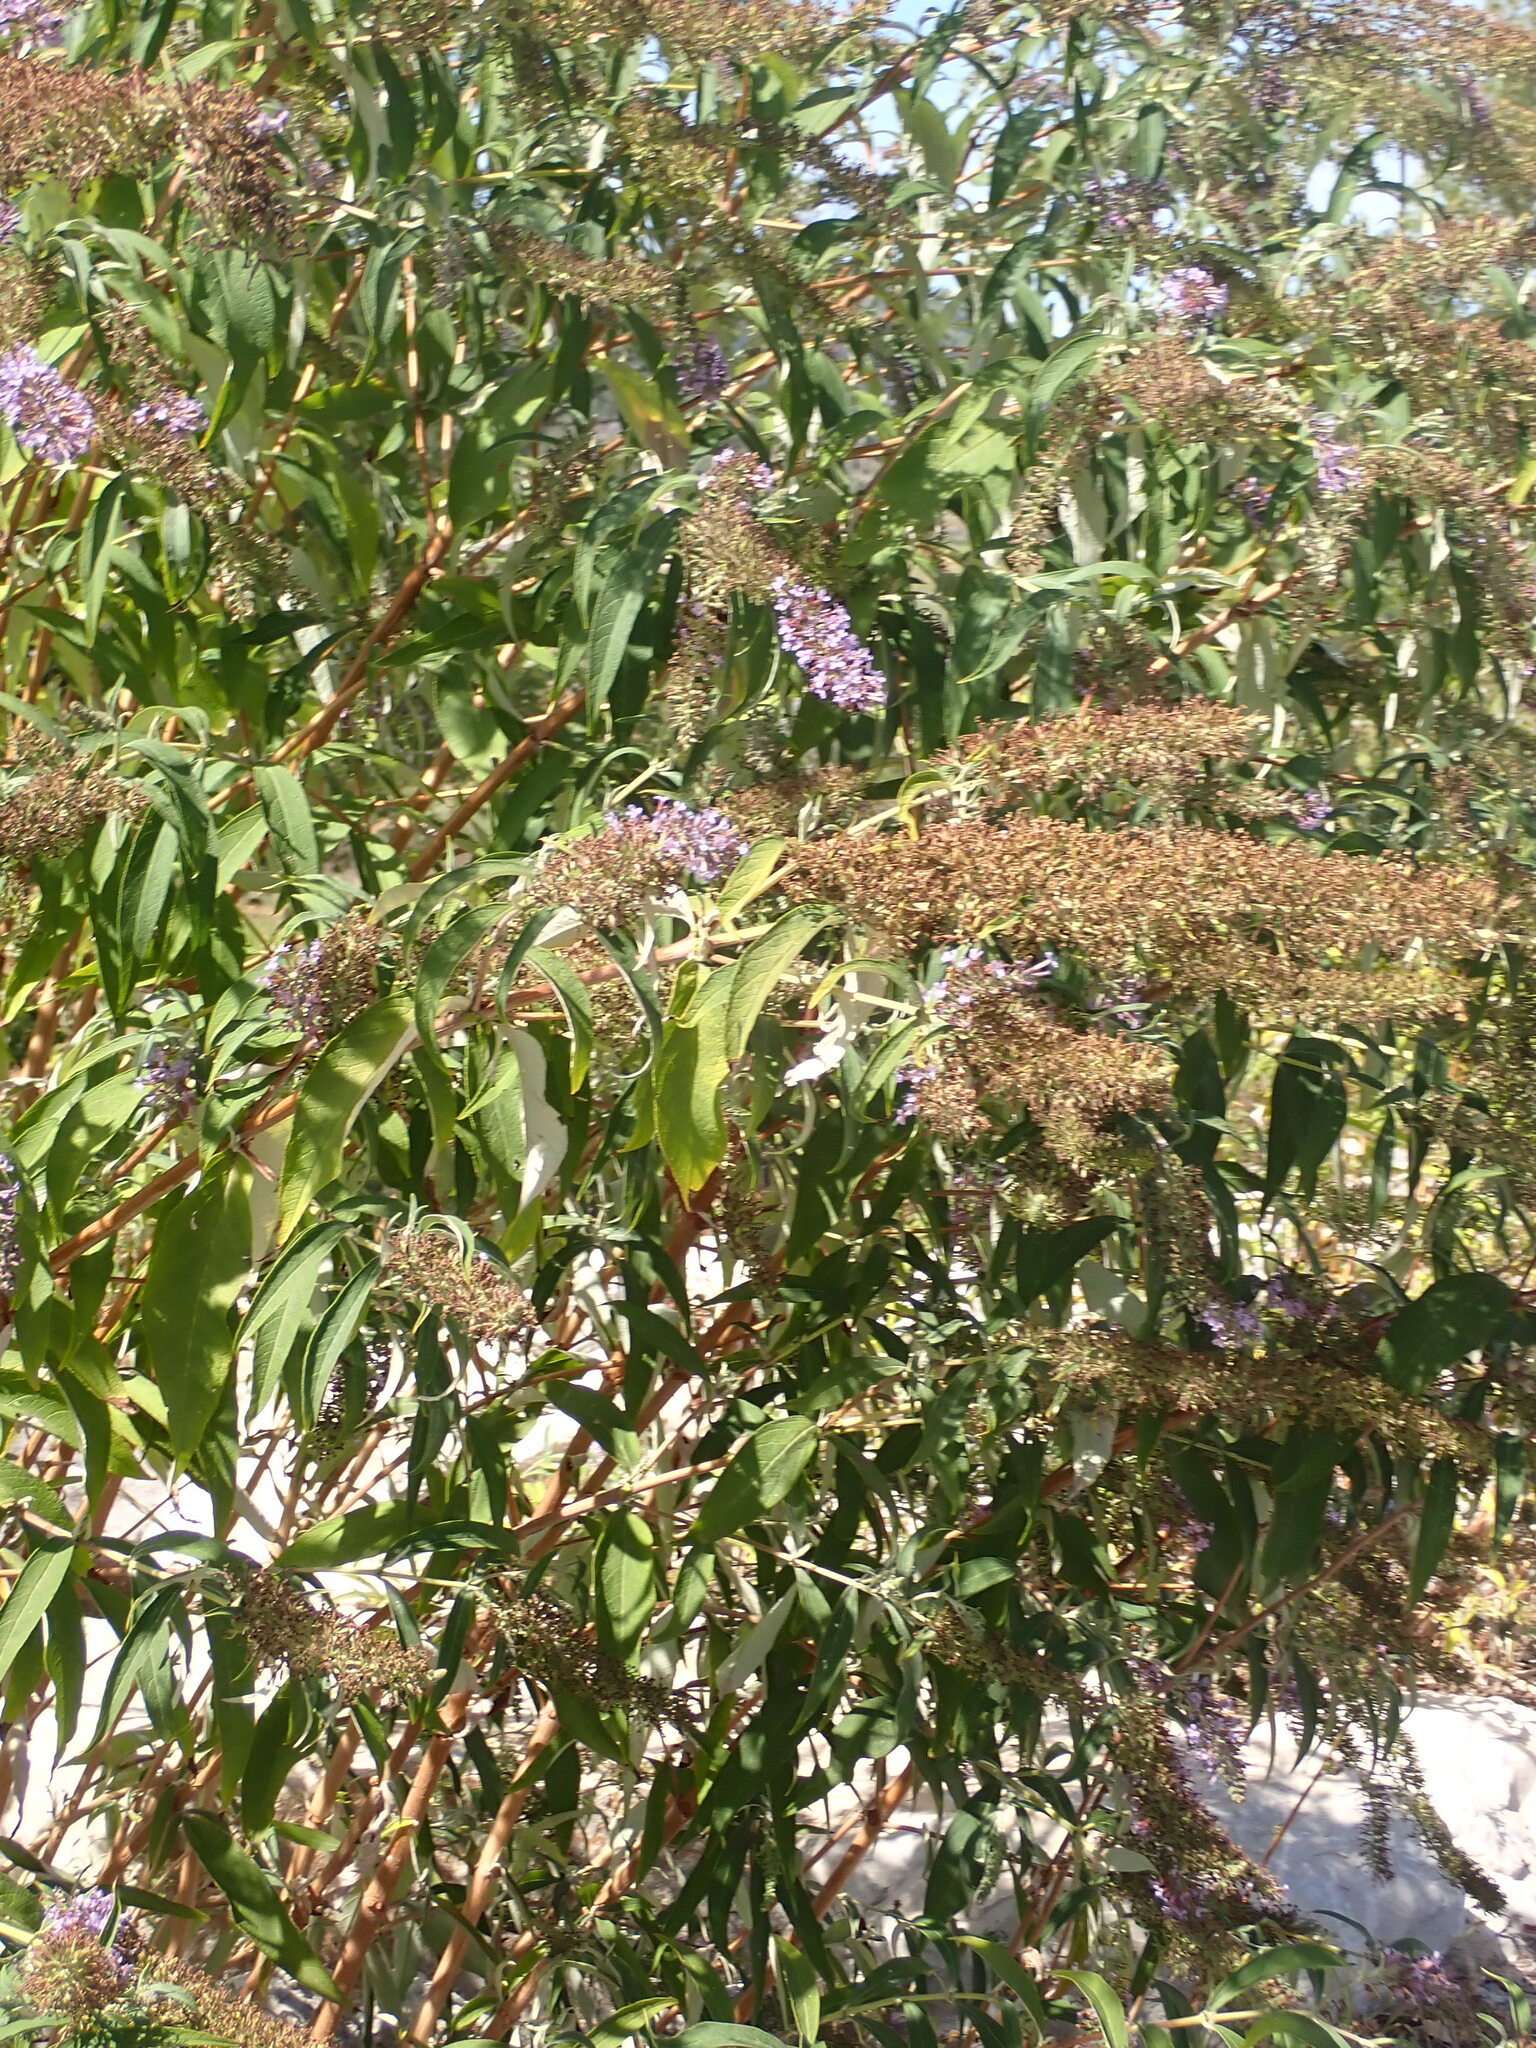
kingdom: Plantae
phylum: Tracheophyta
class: Magnoliopsida
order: Lamiales
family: Scrophulariaceae
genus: Buddleja
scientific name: Buddleja davidii
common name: Butterfly-bush
